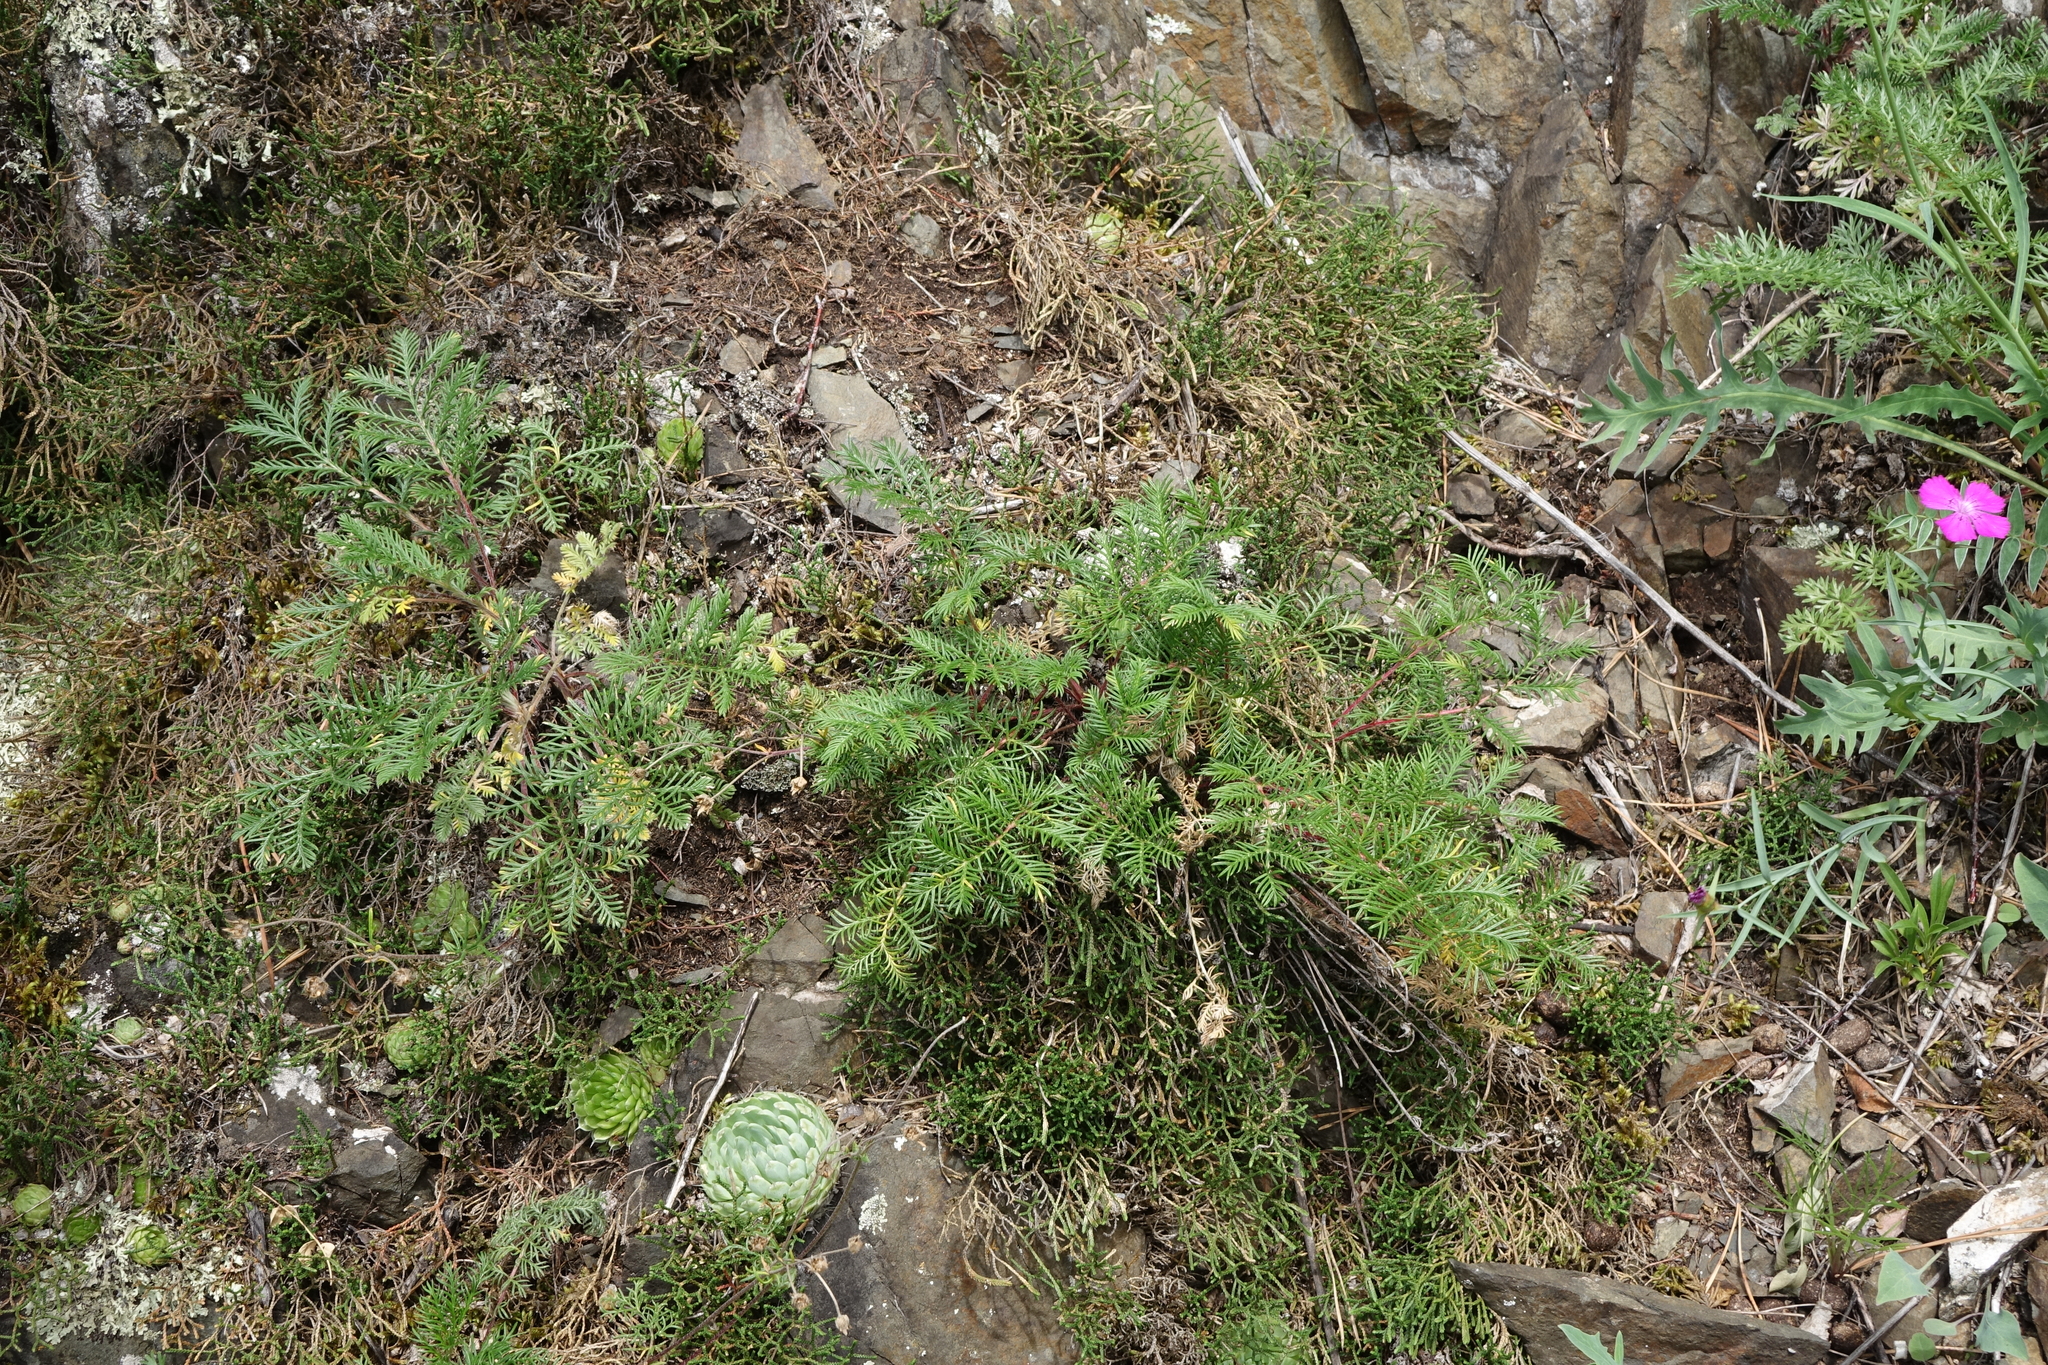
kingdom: Plantae
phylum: Tracheophyta
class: Magnoliopsida
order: Rosales
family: Rosaceae
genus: Potentilla
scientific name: Potentilla sericea
